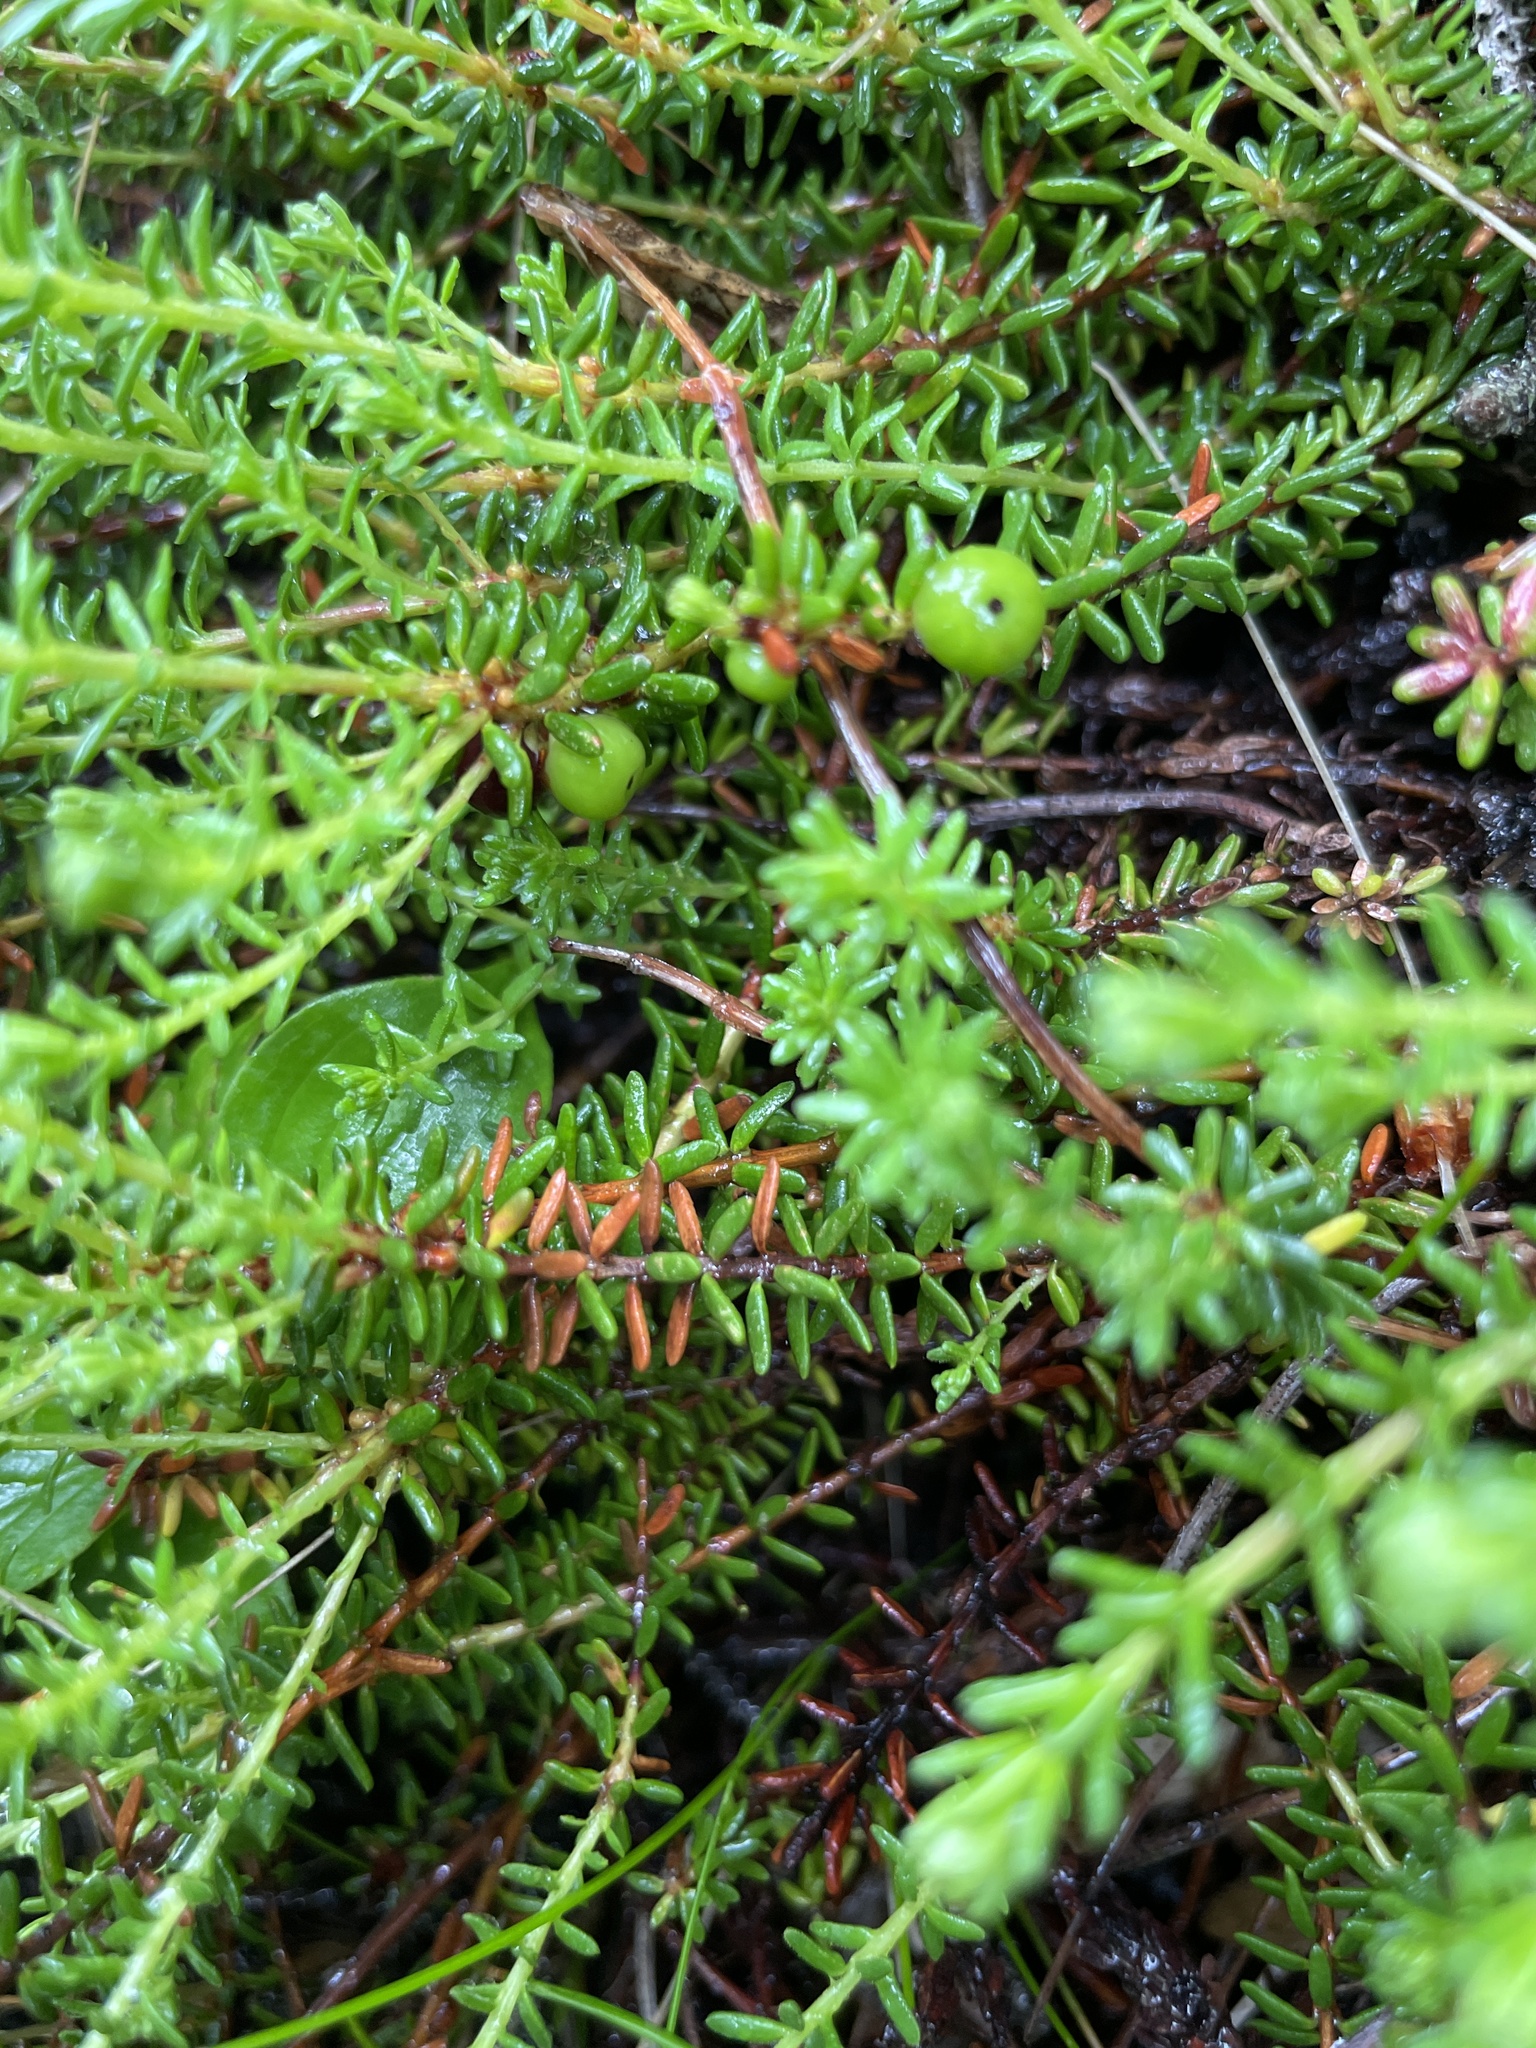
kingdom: Plantae
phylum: Tracheophyta
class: Magnoliopsida
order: Ericales
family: Ericaceae
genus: Empetrum
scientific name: Empetrum nigrum
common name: Black crowberry
